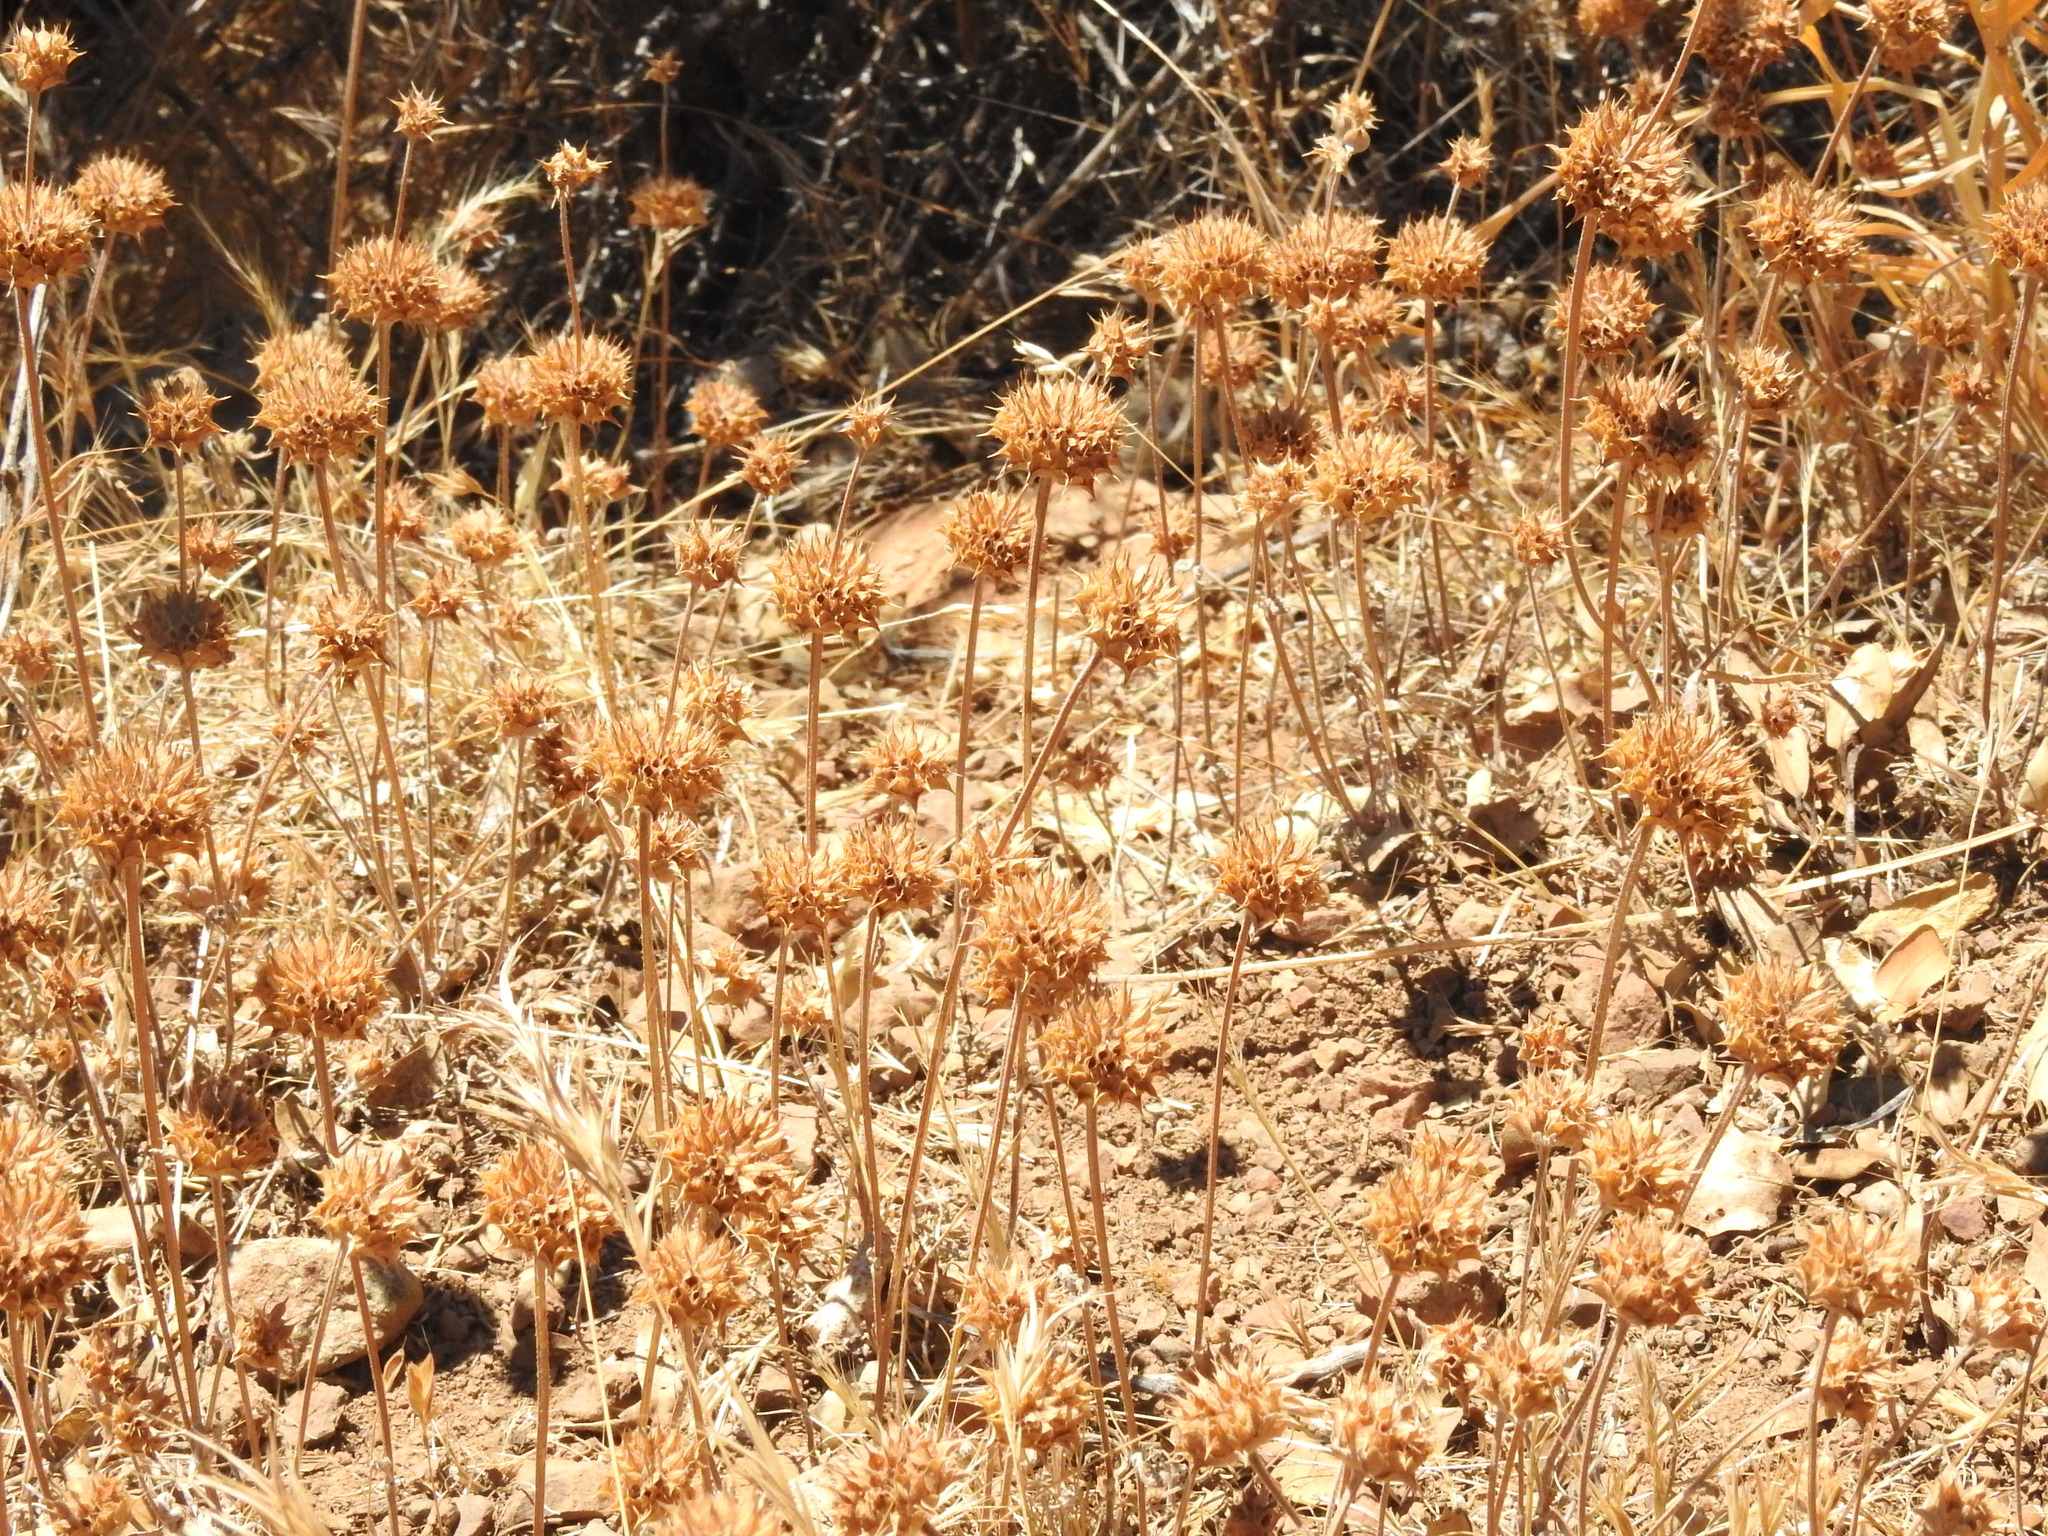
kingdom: Plantae
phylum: Tracheophyta
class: Magnoliopsida
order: Lamiales
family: Lamiaceae
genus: Salvia
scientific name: Salvia columbariae
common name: Chia
